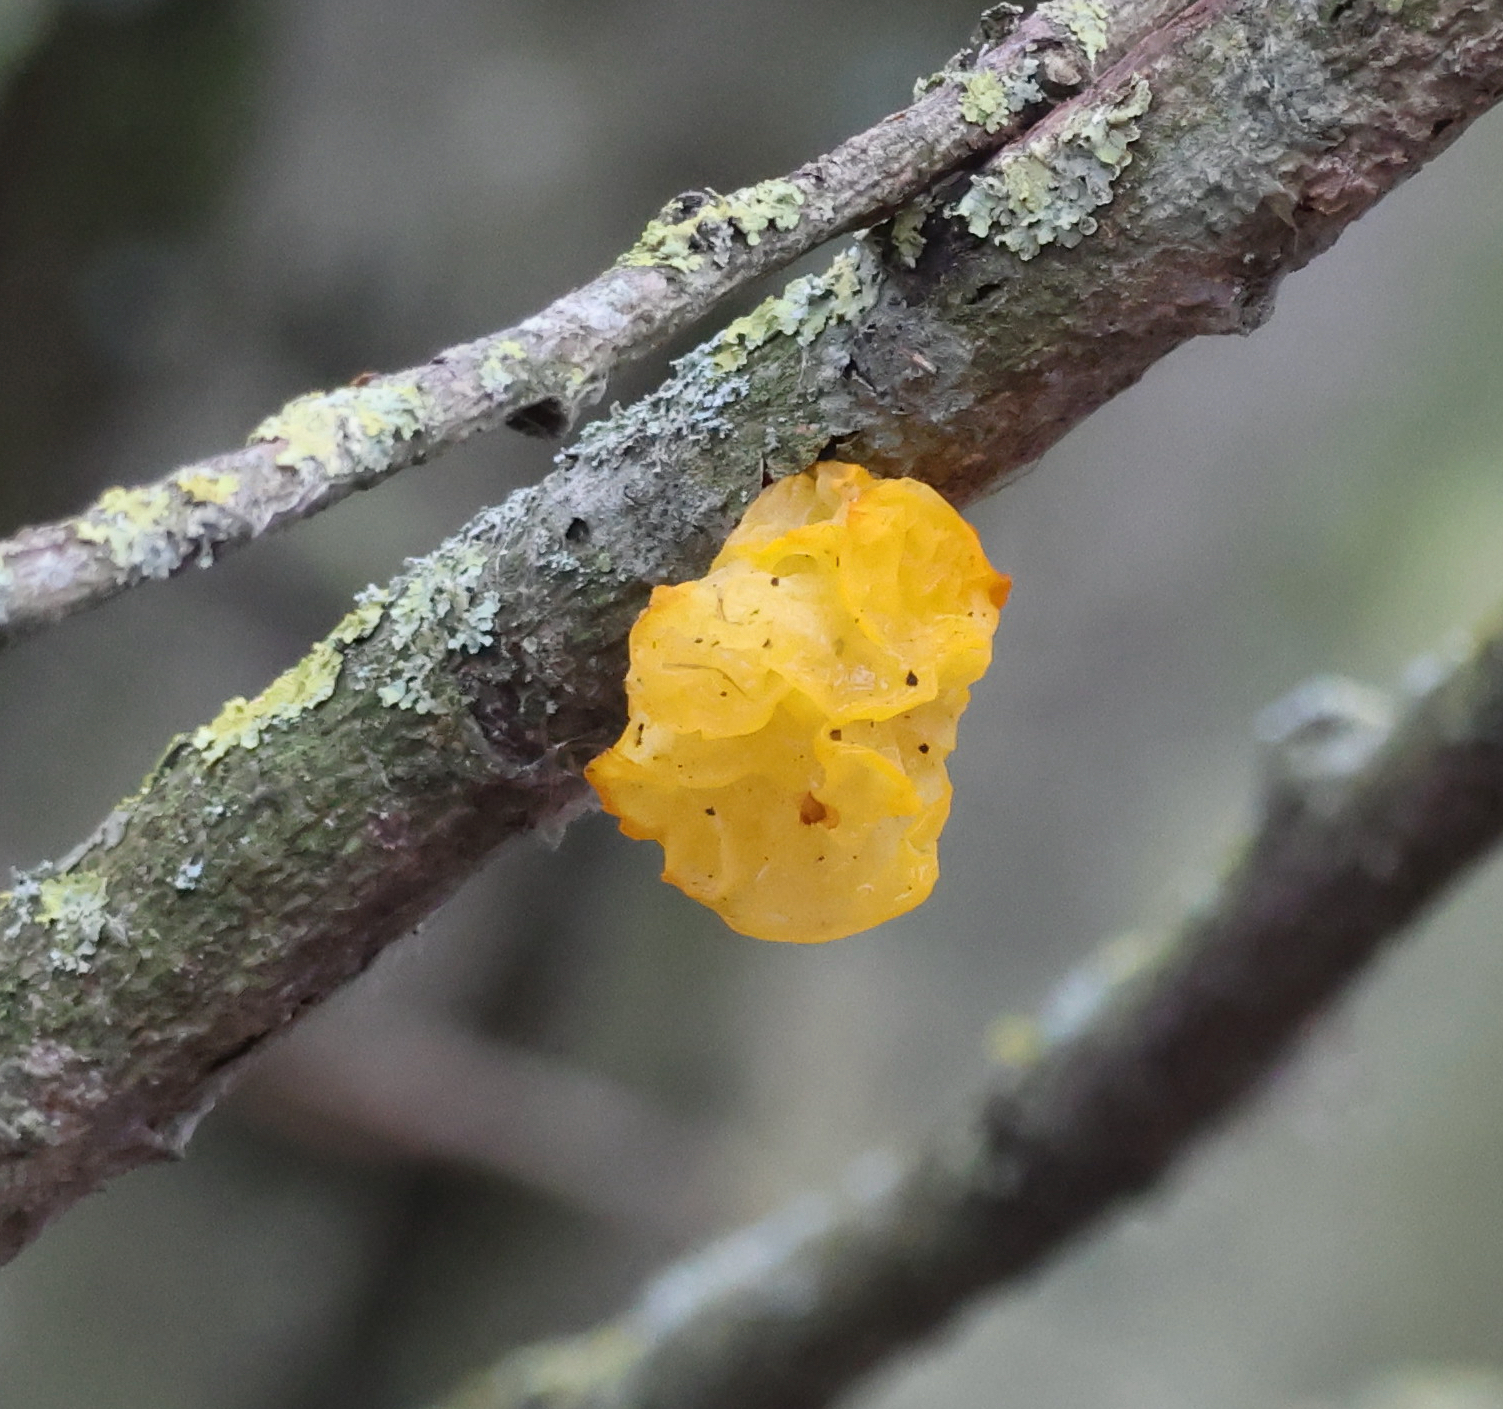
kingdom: Fungi
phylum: Basidiomycota
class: Tremellomycetes
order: Tremellales
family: Tremellaceae
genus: Tremella
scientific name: Tremella mesenterica
